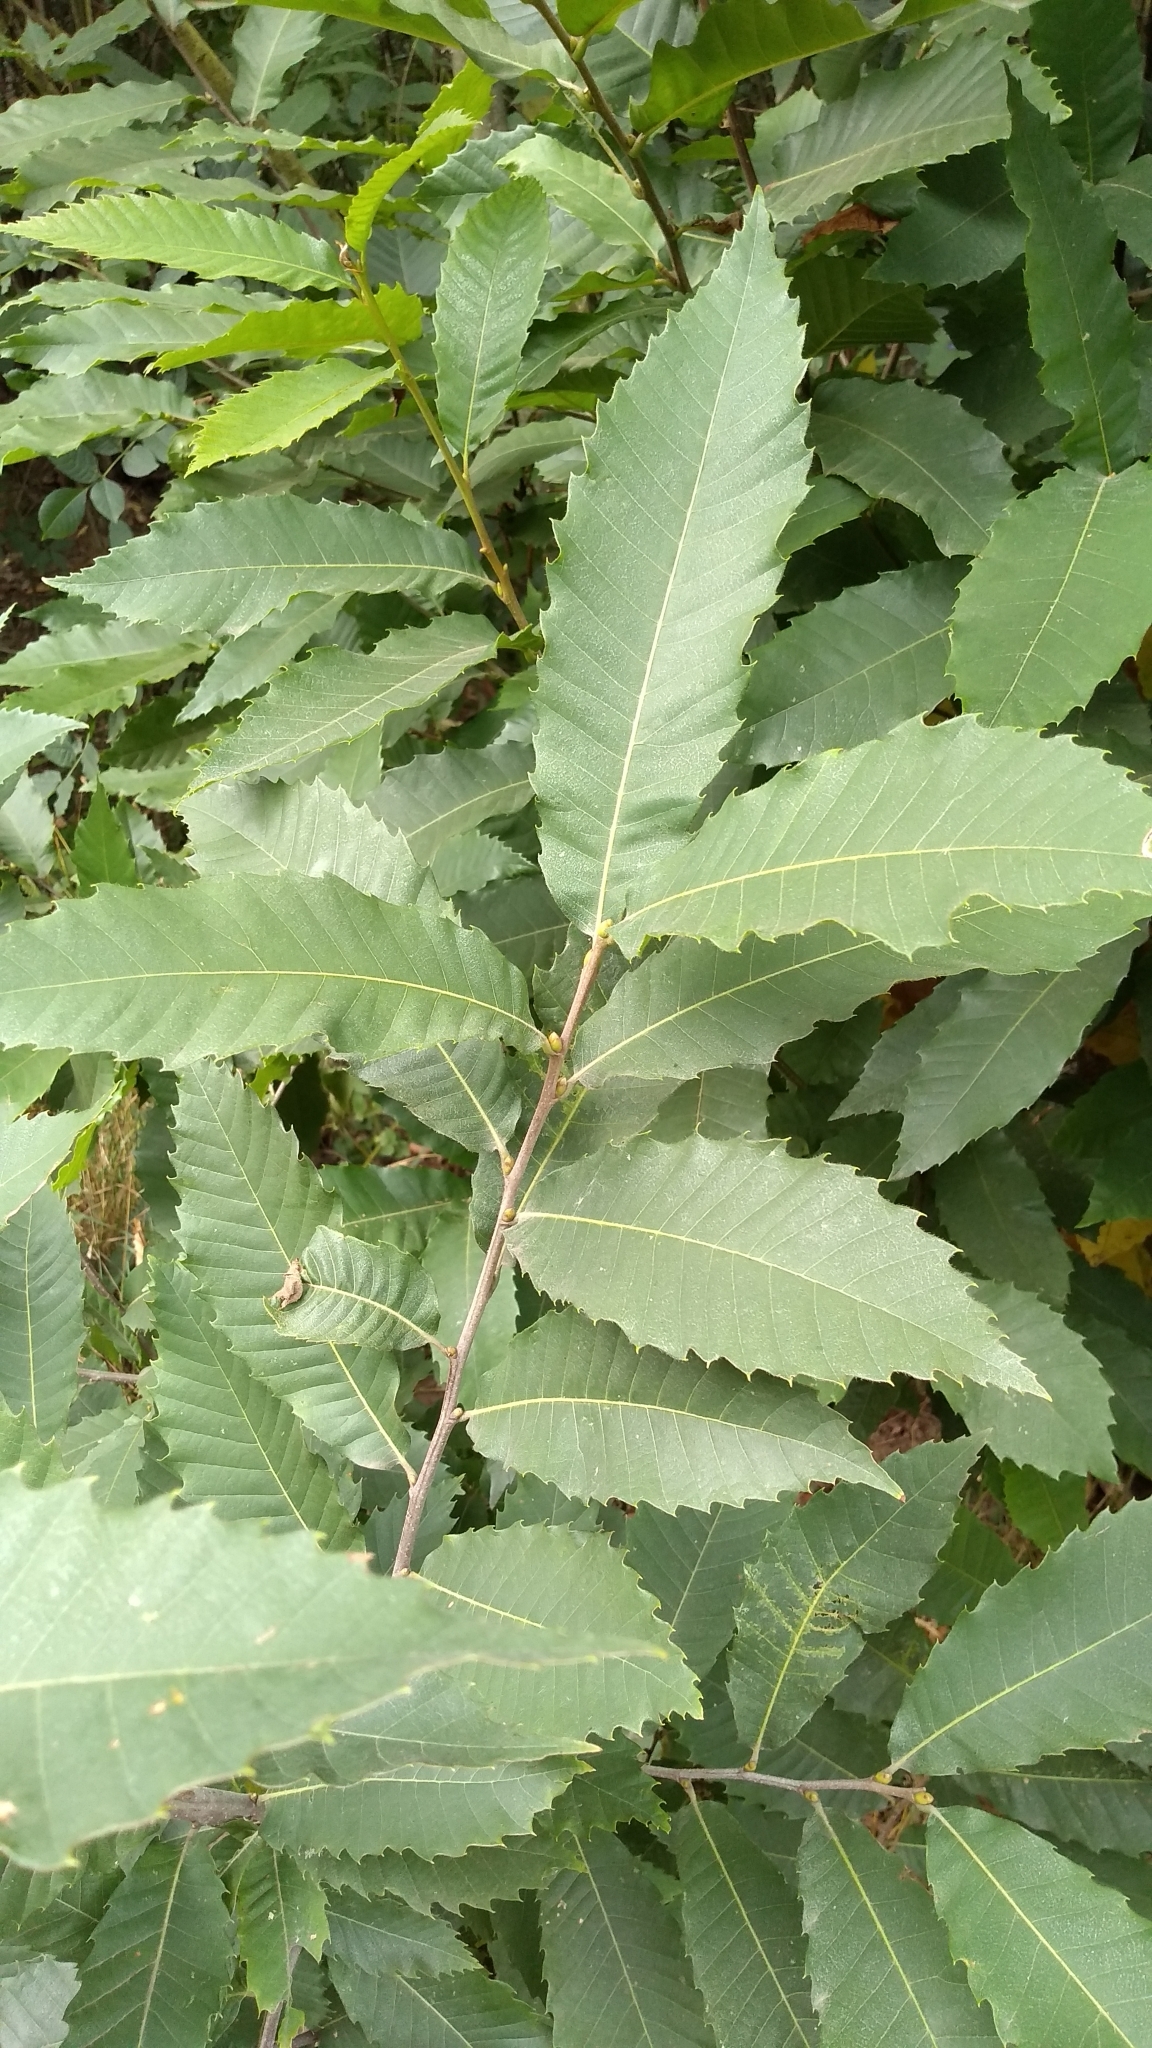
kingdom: Plantae
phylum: Tracheophyta
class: Magnoliopsida
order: Fagales
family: Fagaceae
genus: Castanea
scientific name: Castanea sativa
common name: Sweet chestnut
